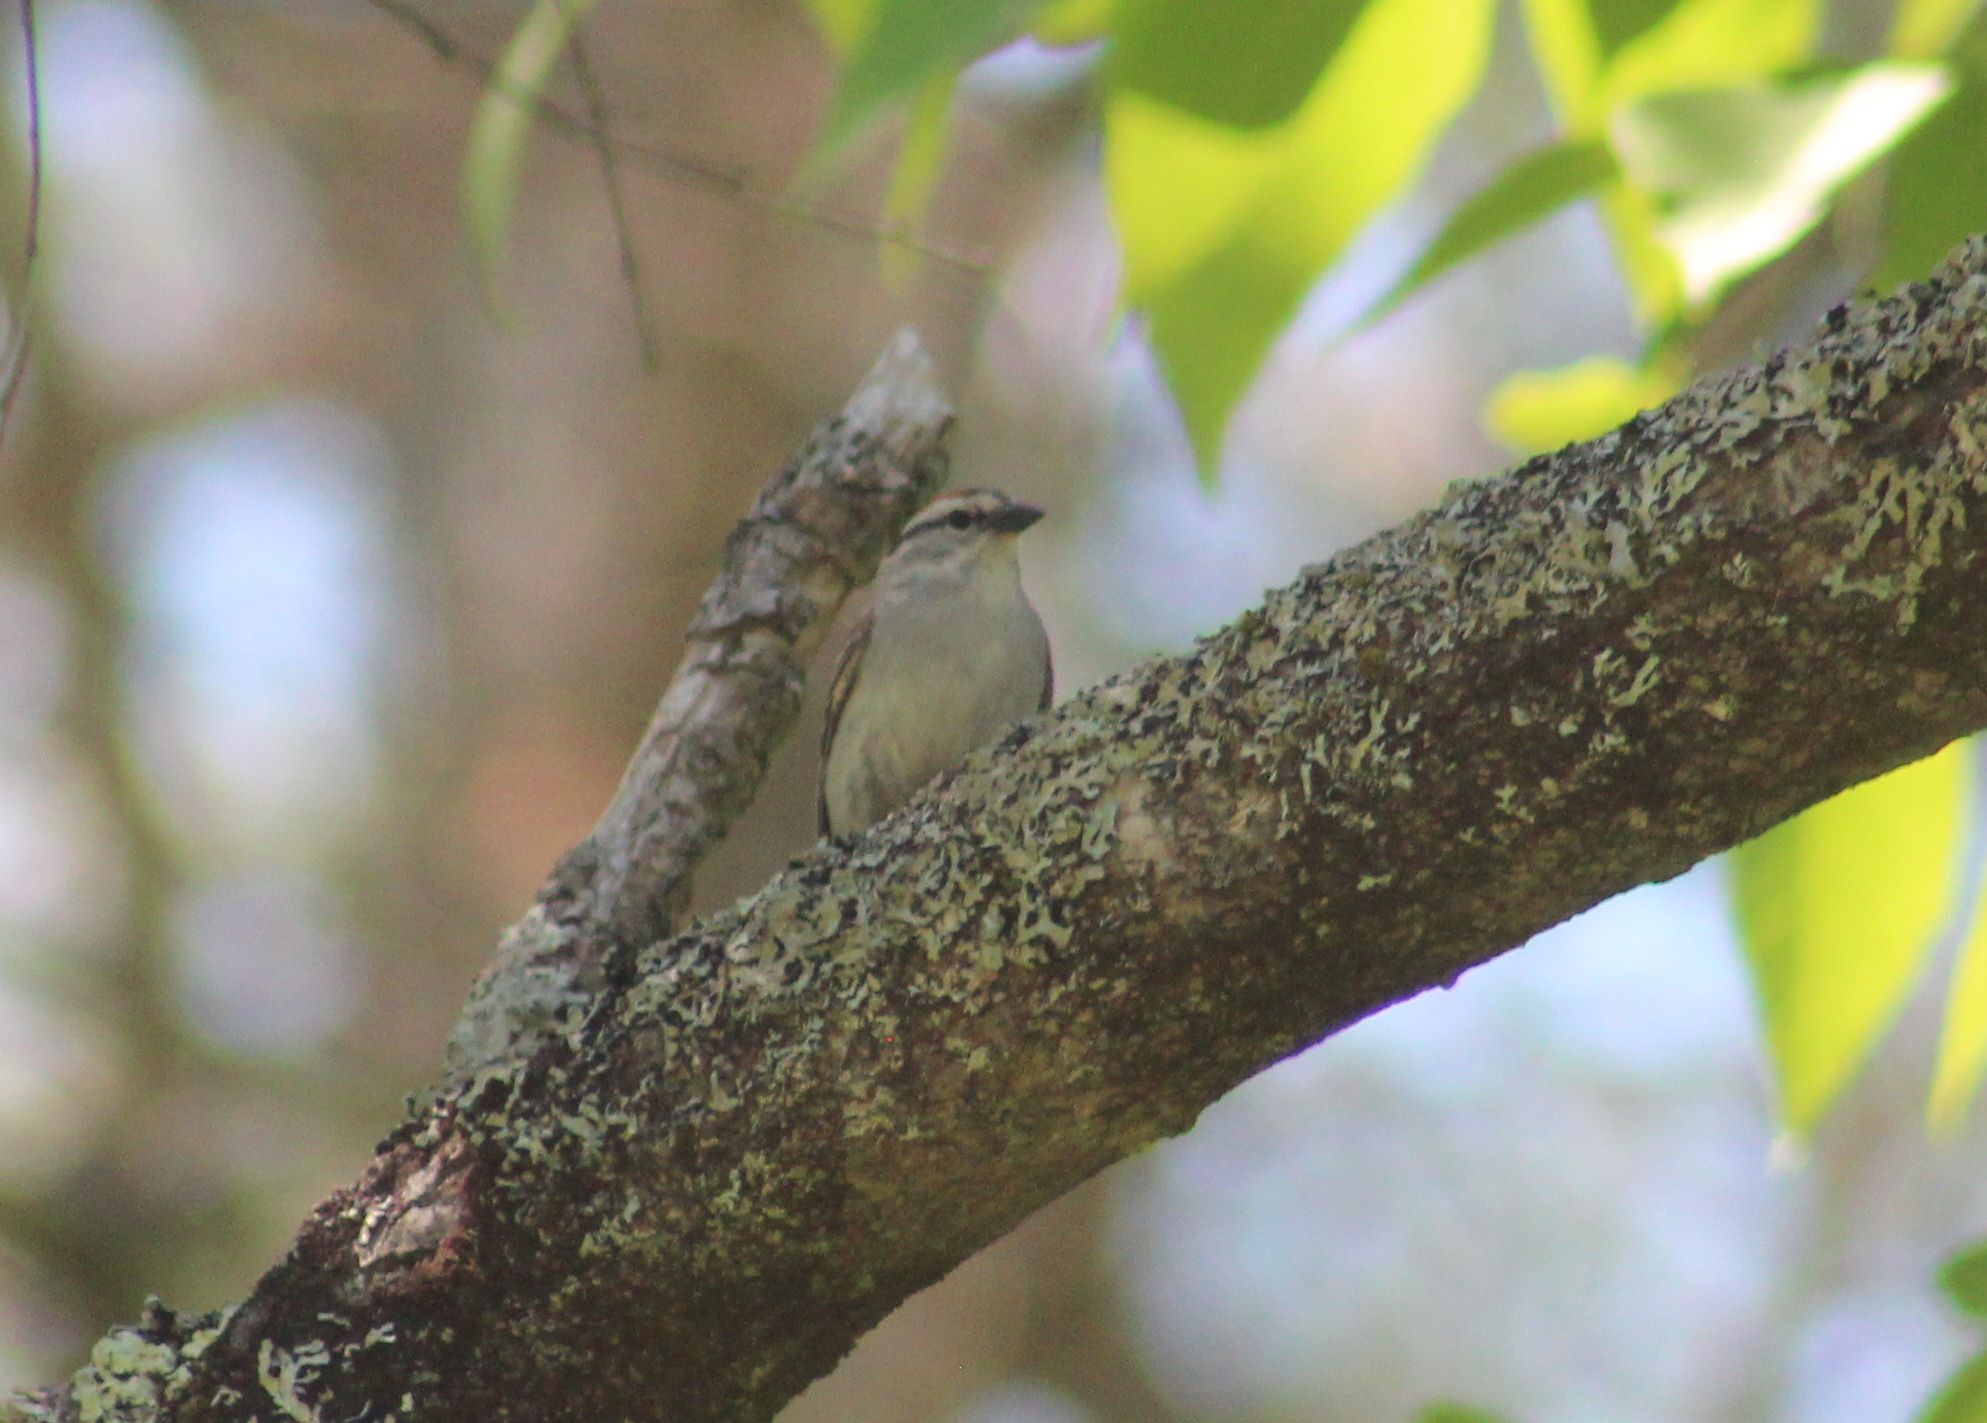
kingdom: Animalia
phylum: Chordata
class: Aves
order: Passeriformes
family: Passerellidae
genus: Spizella
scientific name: Spizella passerina
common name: Chipping sparrow
